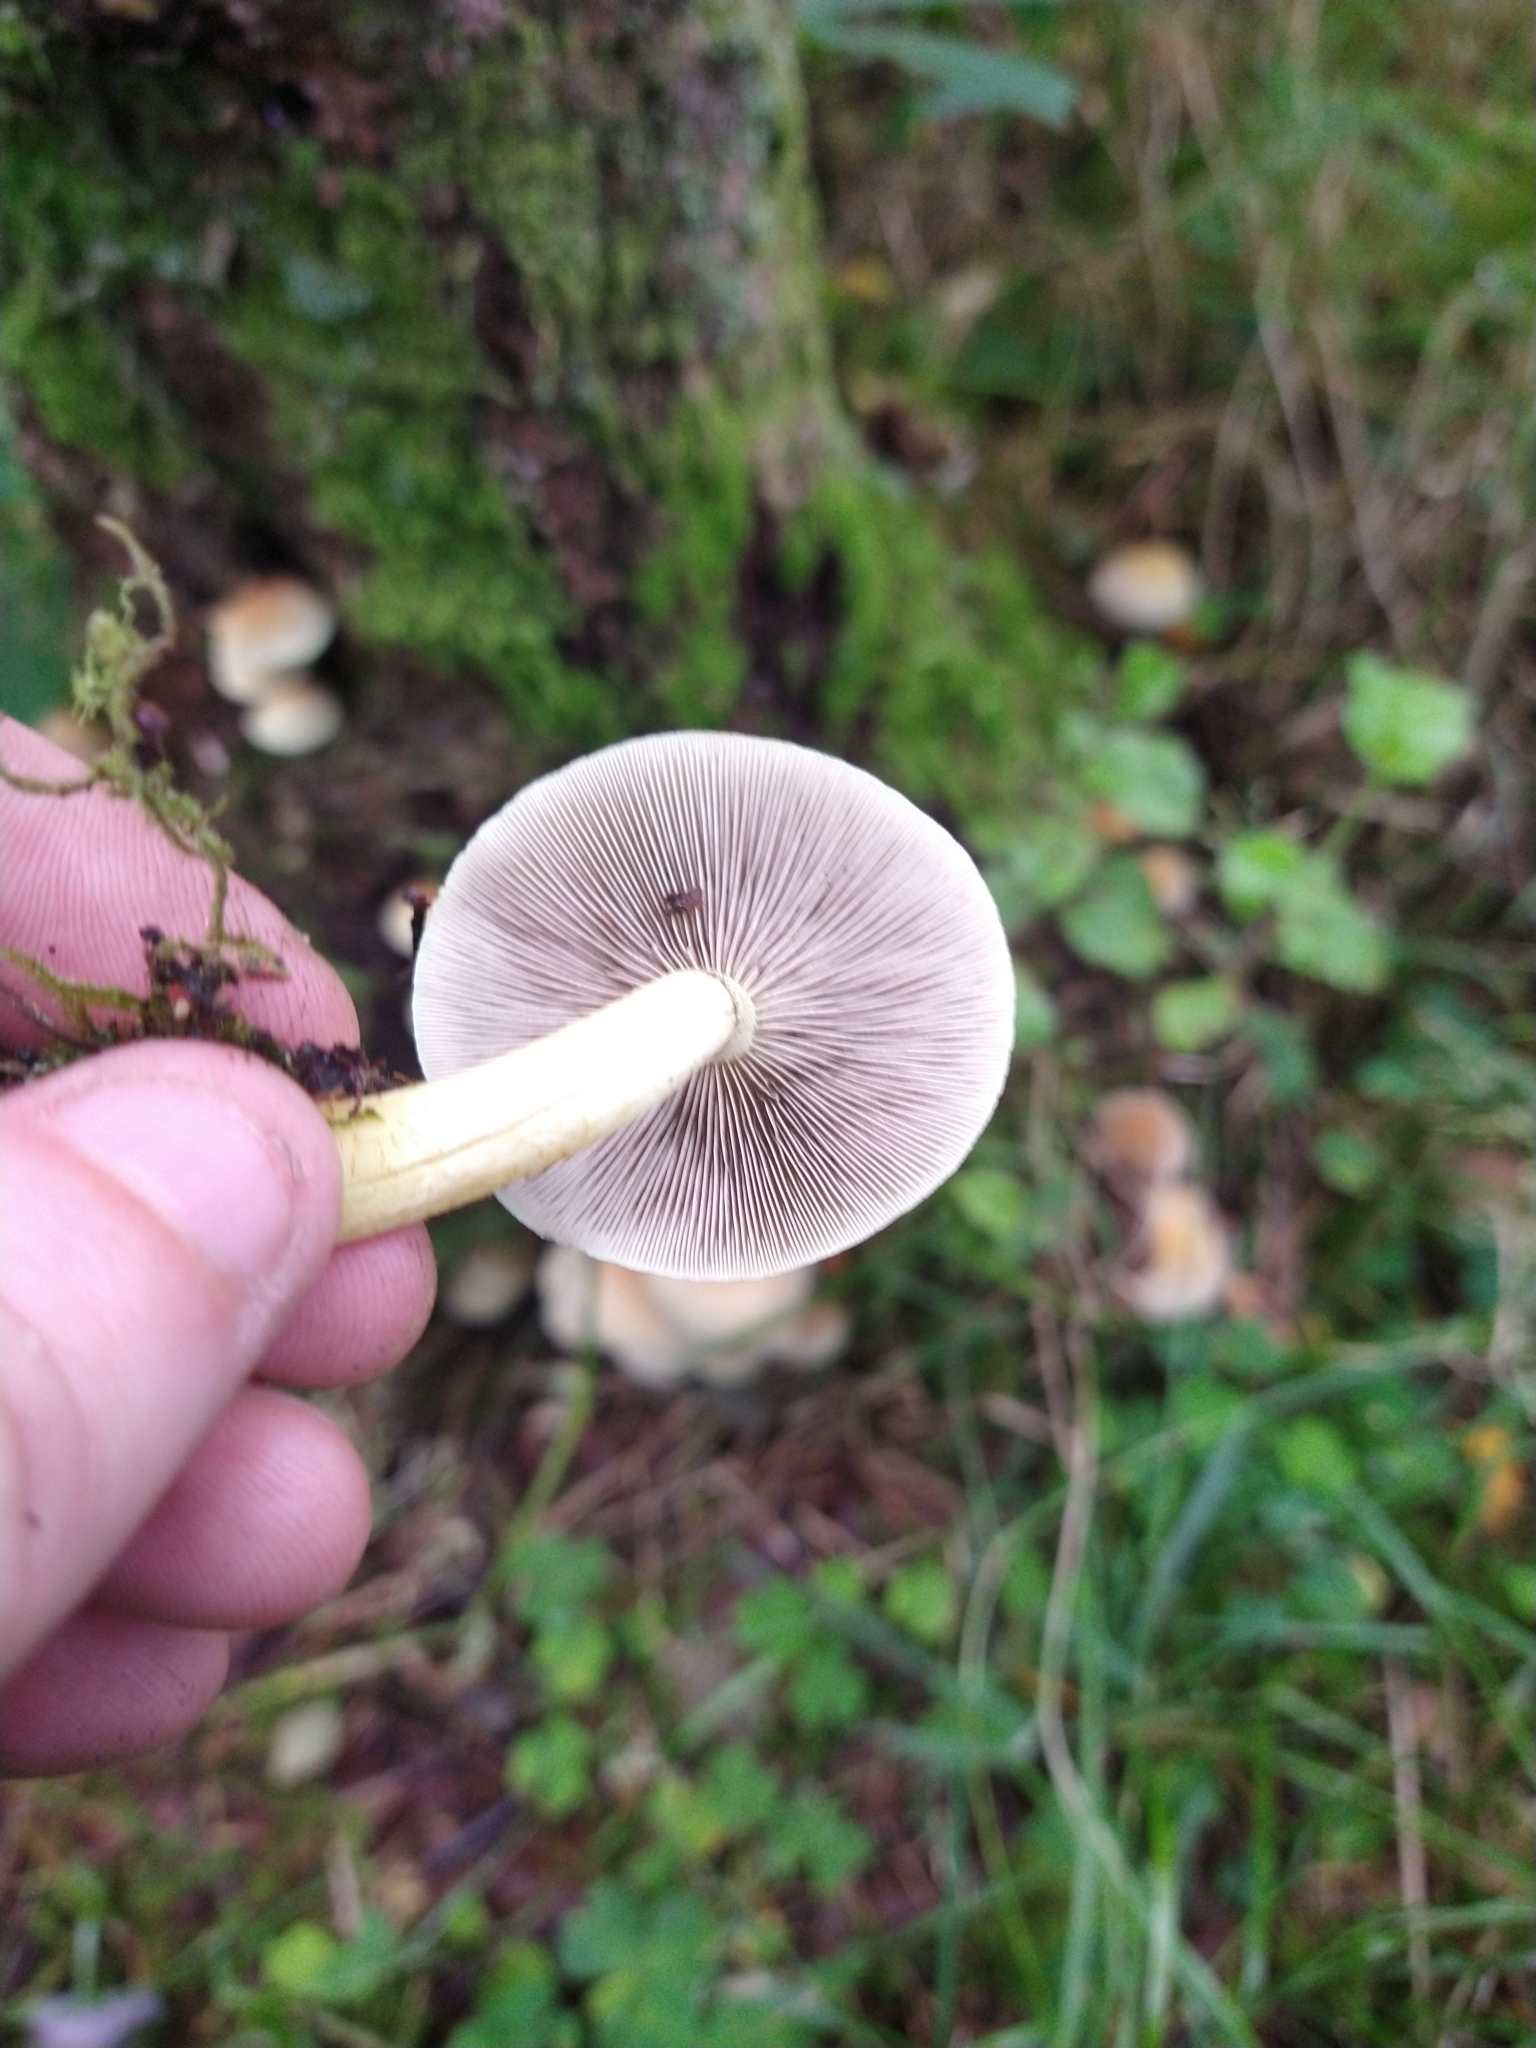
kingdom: Fungi
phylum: Basidiomycota
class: Agaricomycetes
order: Agaricales
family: Strophariaceae
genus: Hypholoma
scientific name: Hypholoma fasciculare
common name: Sulphur tuft
